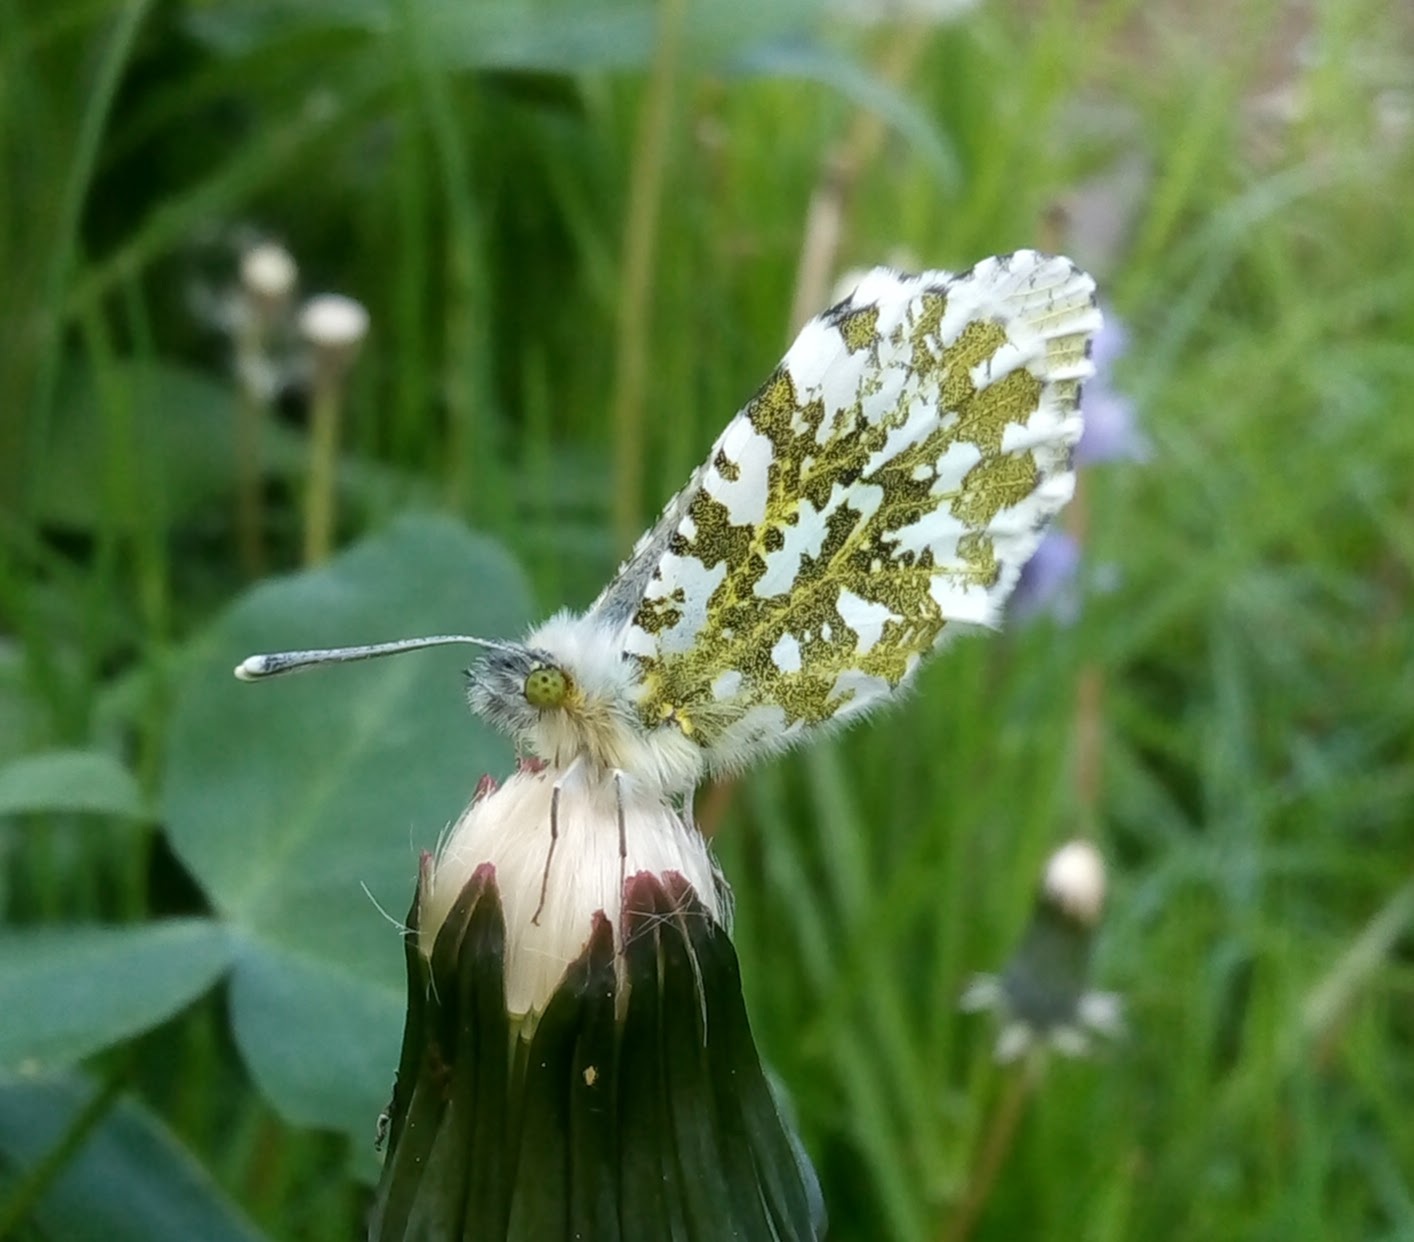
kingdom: Animalia
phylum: Arthropoda
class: Insecta
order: Lepidoptera
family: Pieridae
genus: Anthocharis
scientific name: Anthocharis cardamines
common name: Orange-tip
